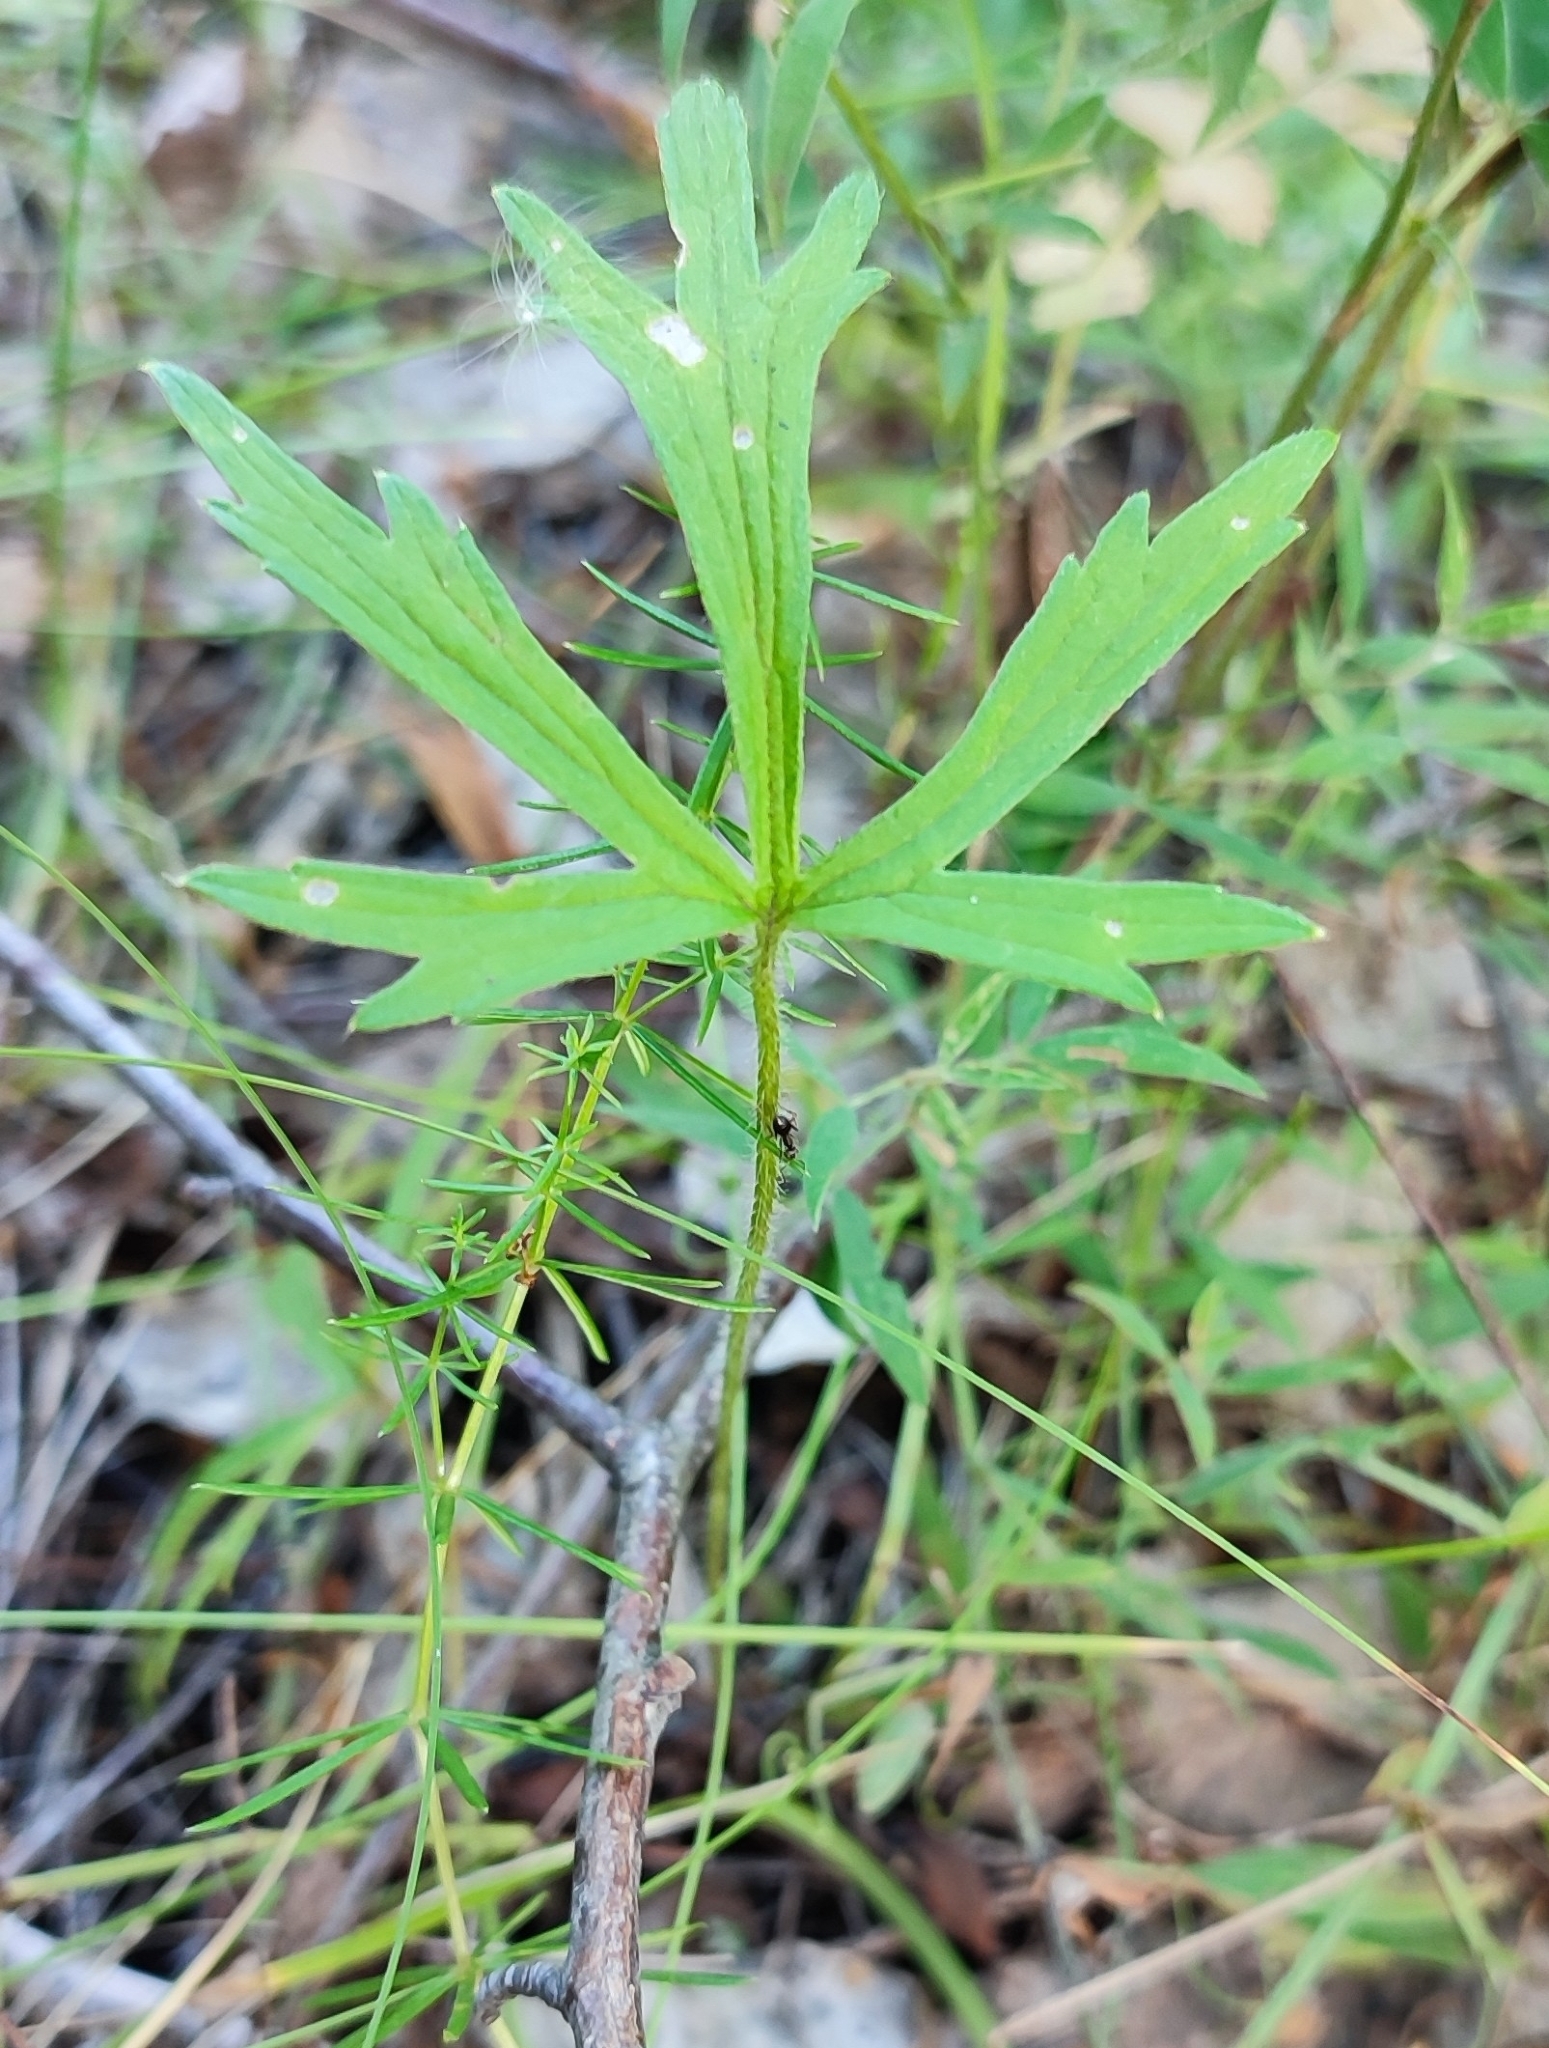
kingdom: Plantae
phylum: Tracheophyta
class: Magnoliopsida
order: Ranunculales
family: Ranunculaceae
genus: Ranunculus
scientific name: Ranunculus polyanthemos
